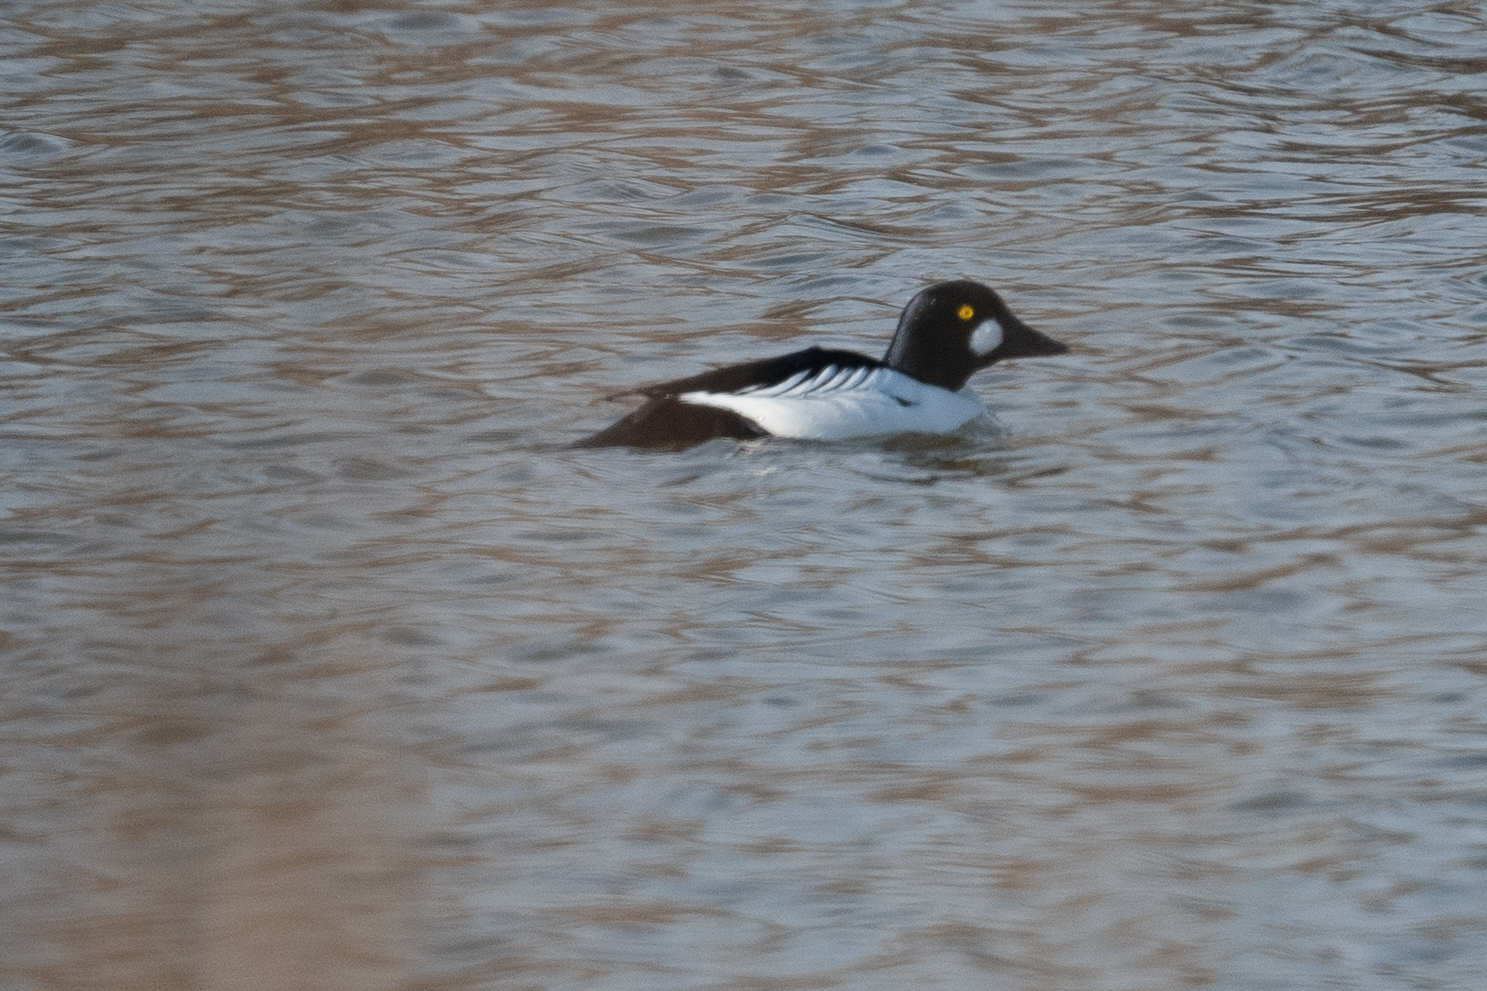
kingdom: Animalia
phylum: Chordata
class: Aves
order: Anseriformes
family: Anatidae
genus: Bucephala
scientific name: Bucephala clangula
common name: Common goldeneye
